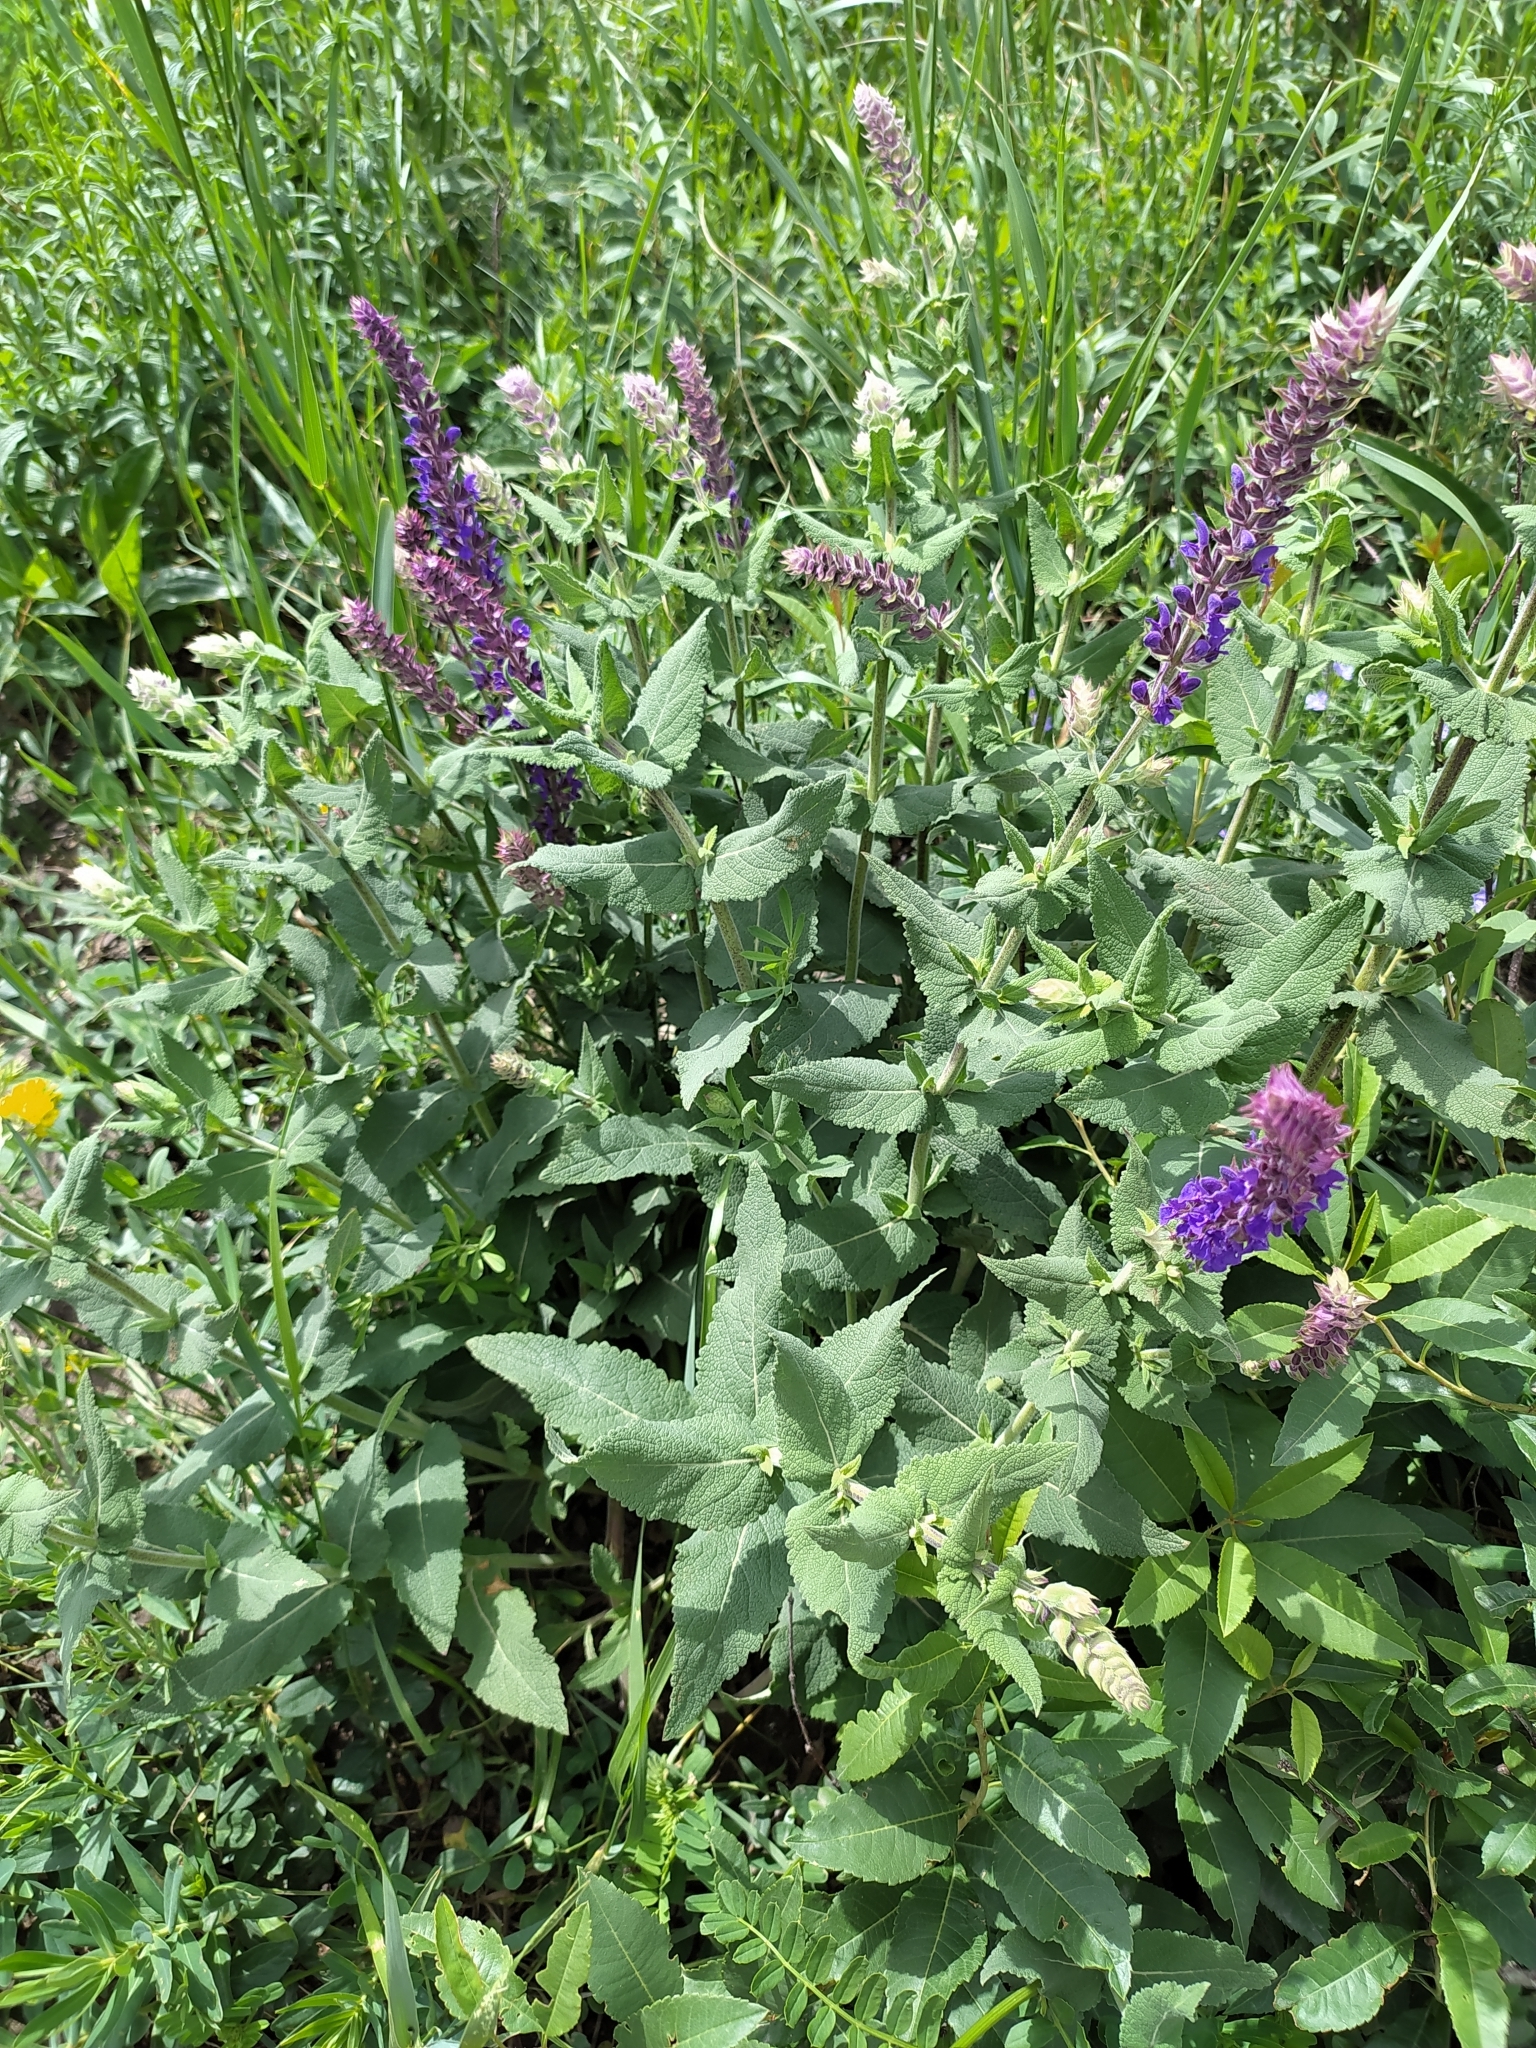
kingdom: Plantae
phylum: Tracheophyta
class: Magnoliopsida
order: Lamiales
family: Lamiaceae
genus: Salvia
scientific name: Salvia nemorosa
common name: Balkan clary
